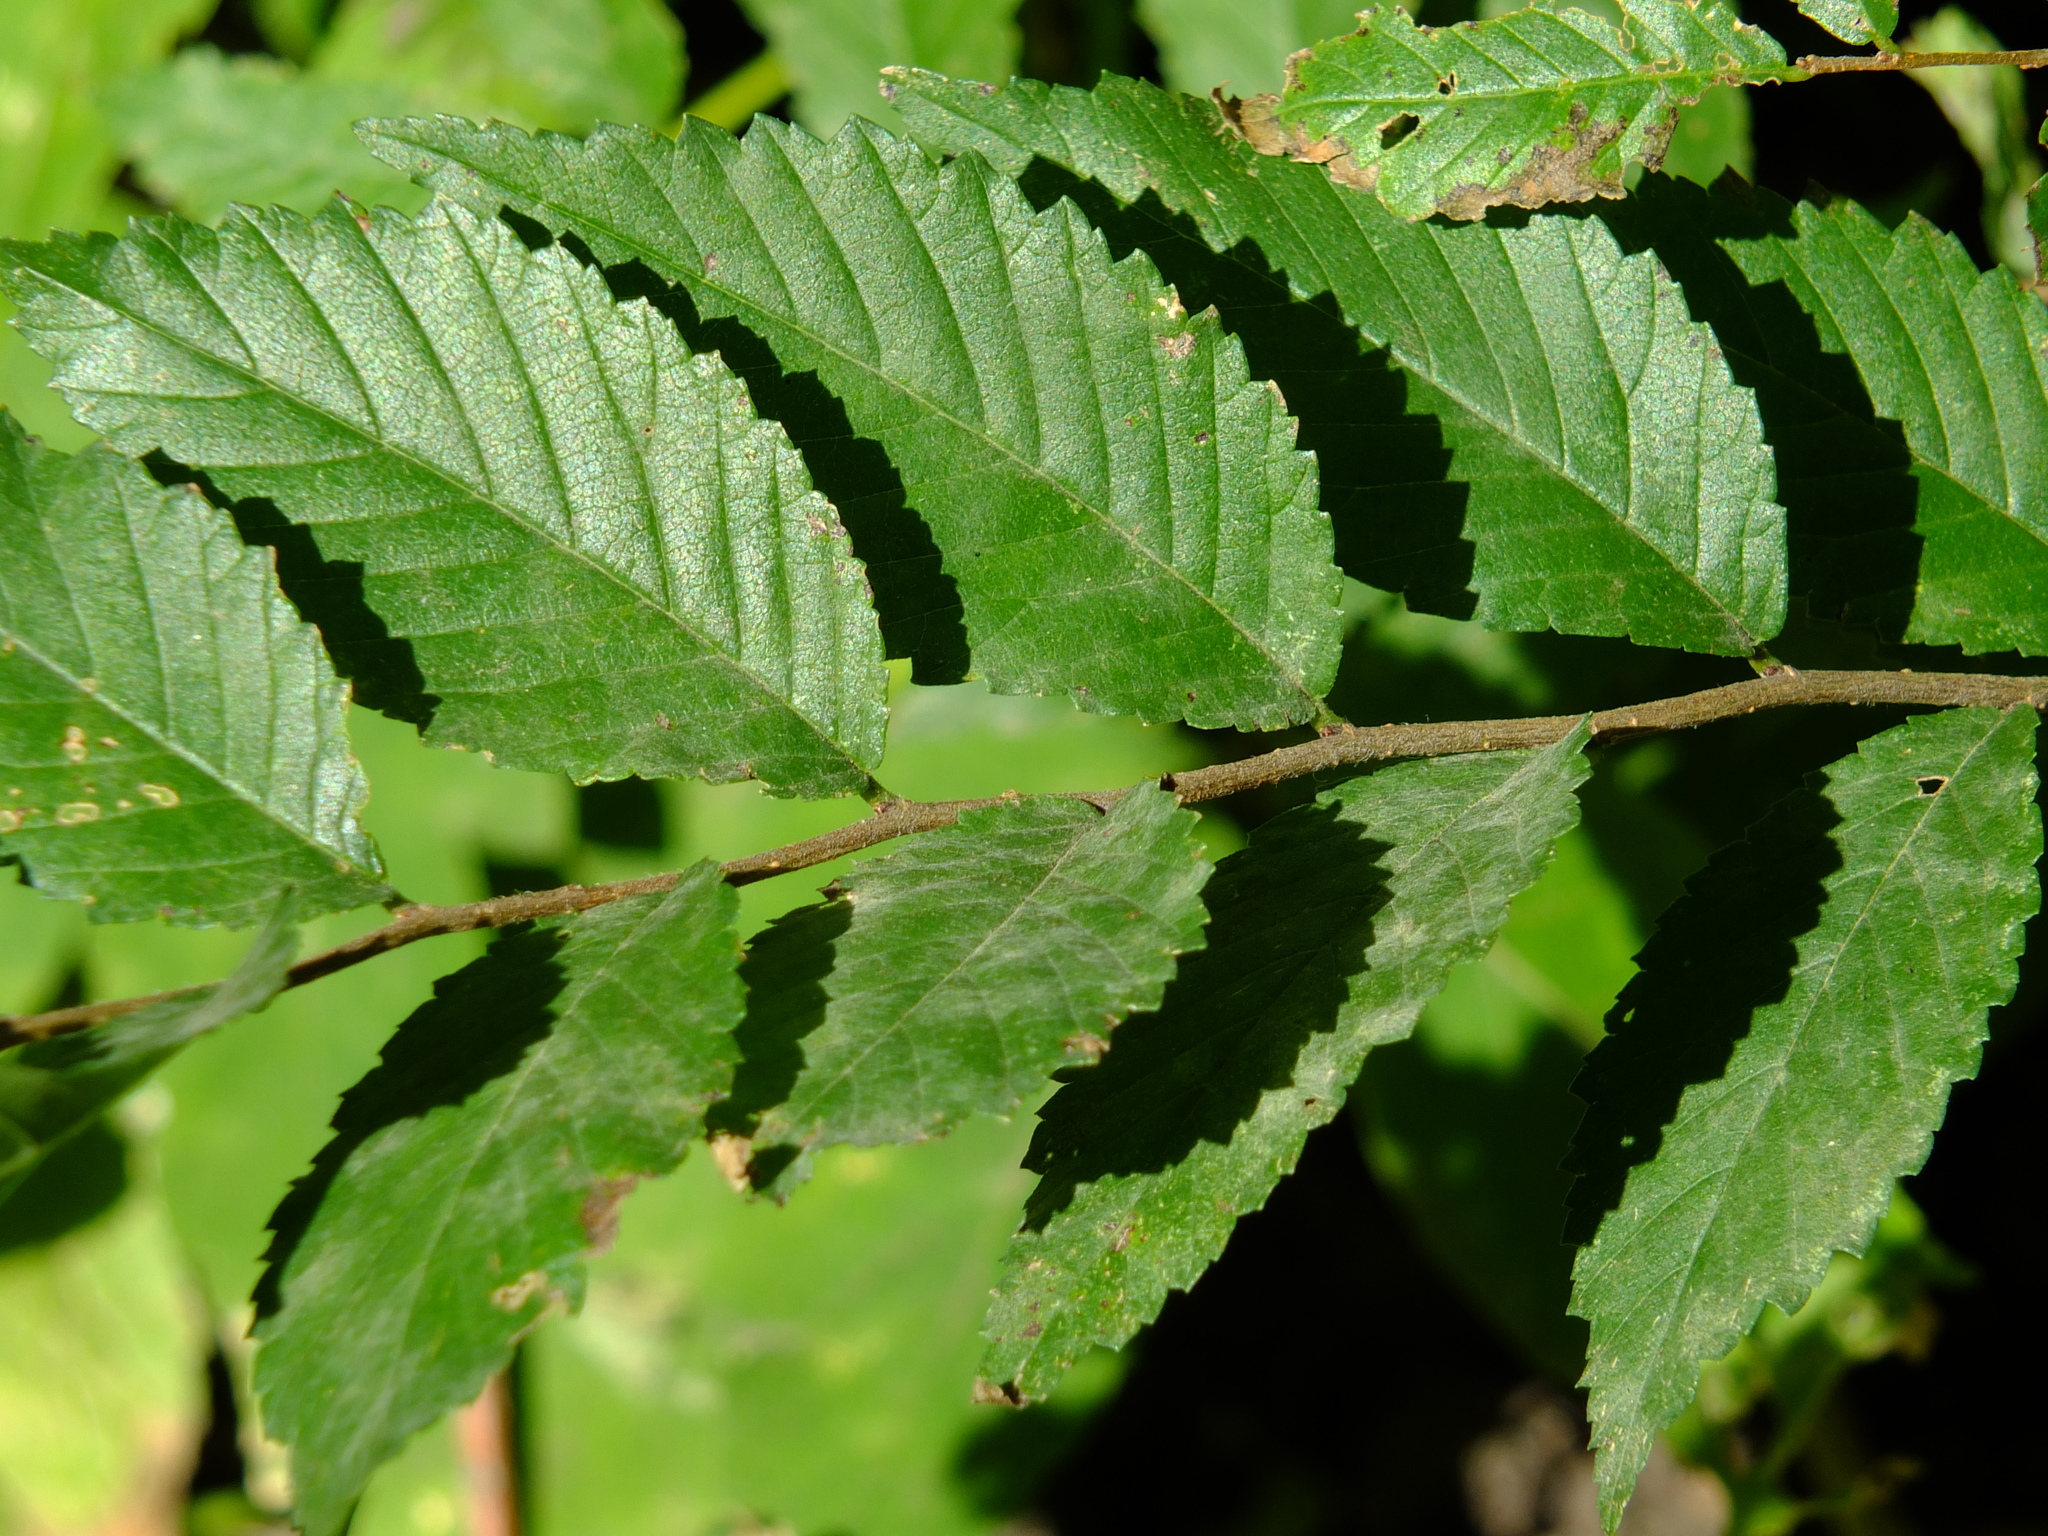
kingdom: Plantae
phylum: Tracheophyta
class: Magnoliopsida
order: Rosales
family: Ulmaceae
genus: Ulmus
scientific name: Ulmus pumila
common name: Siberian elm
